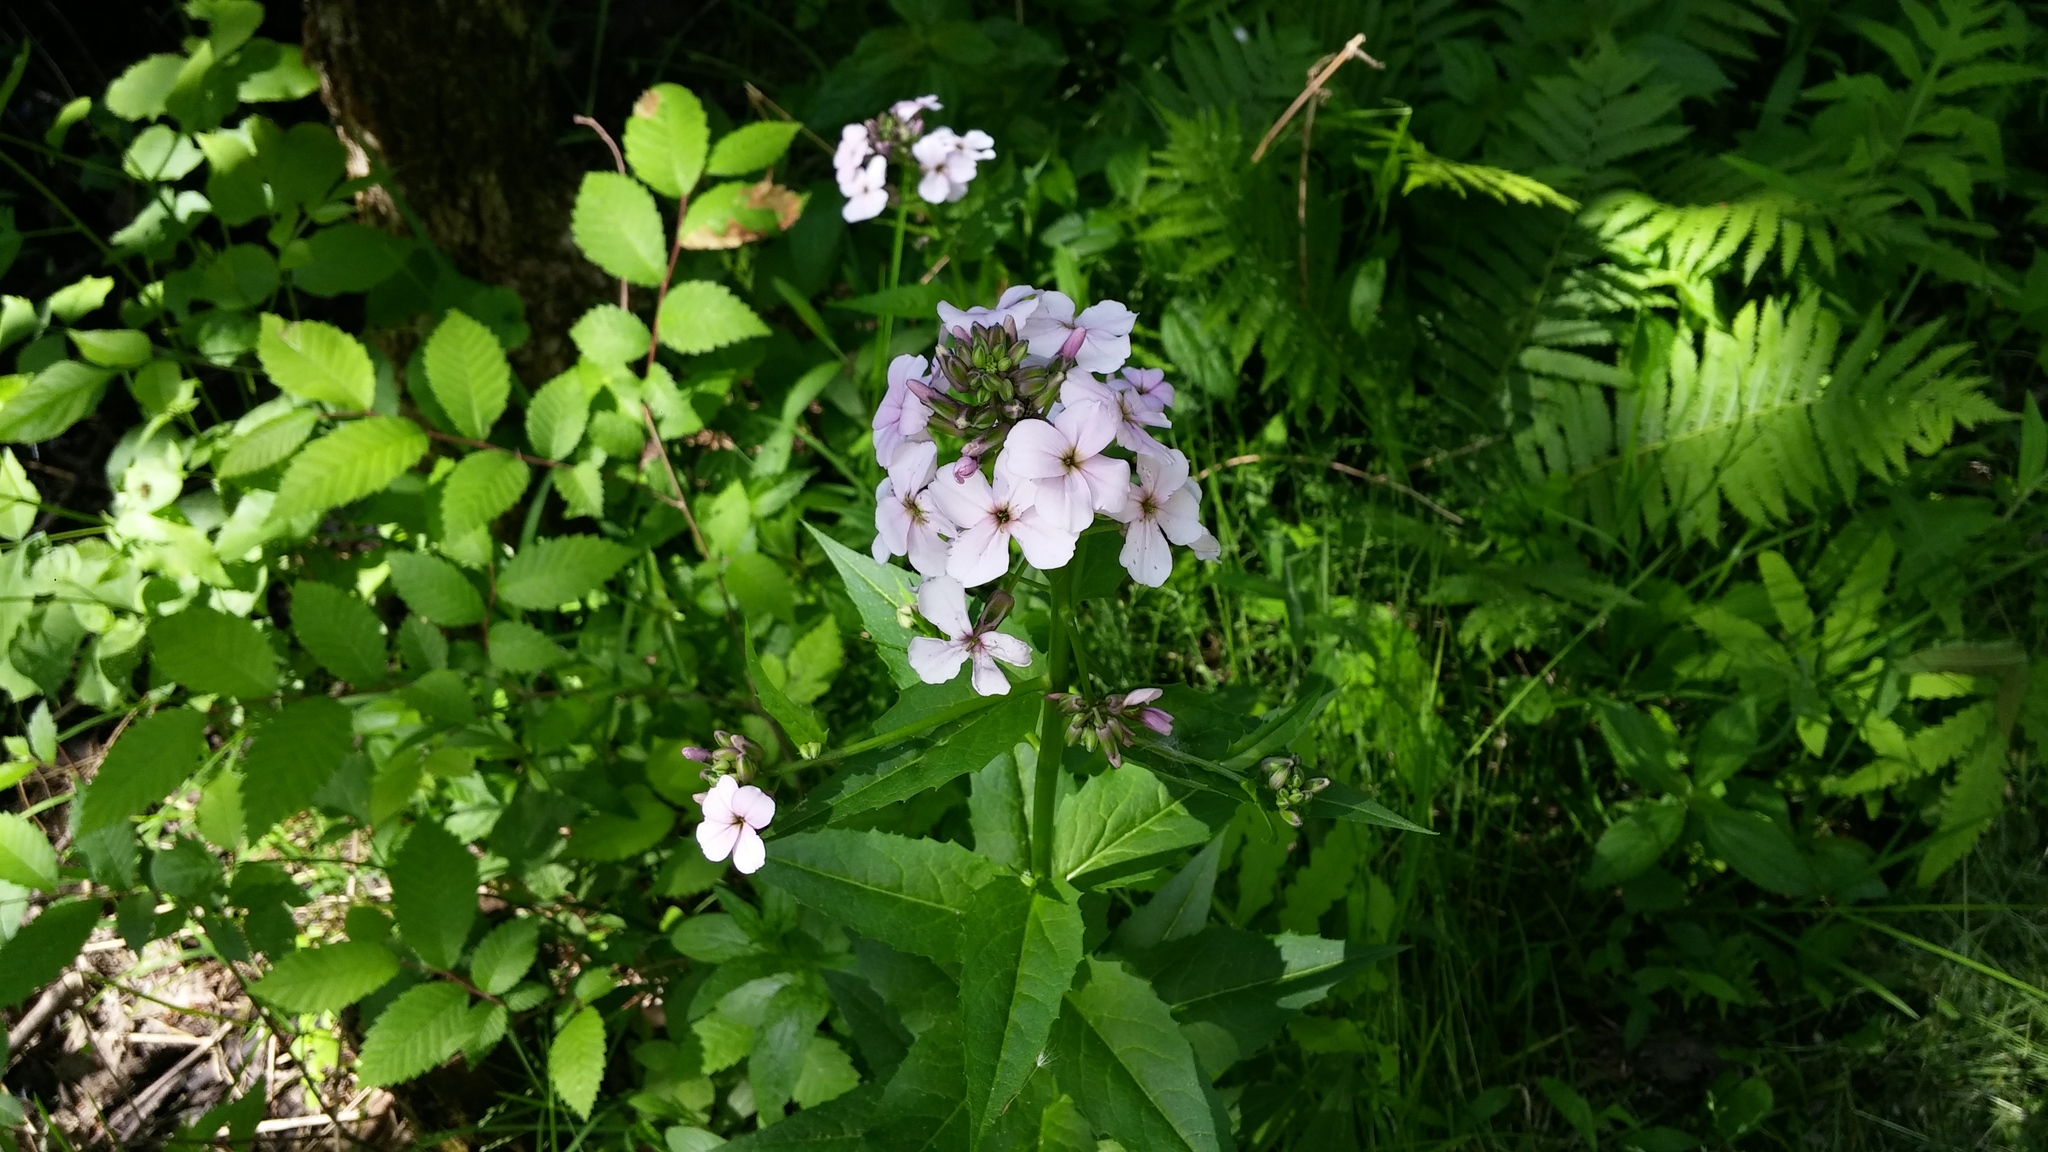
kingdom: Plantae
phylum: Tracheophyta
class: Magnoliopsida
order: Brassicales
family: Brassicaceae
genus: Hesperis
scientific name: Hesperis matronalis
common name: Dame's-violet
